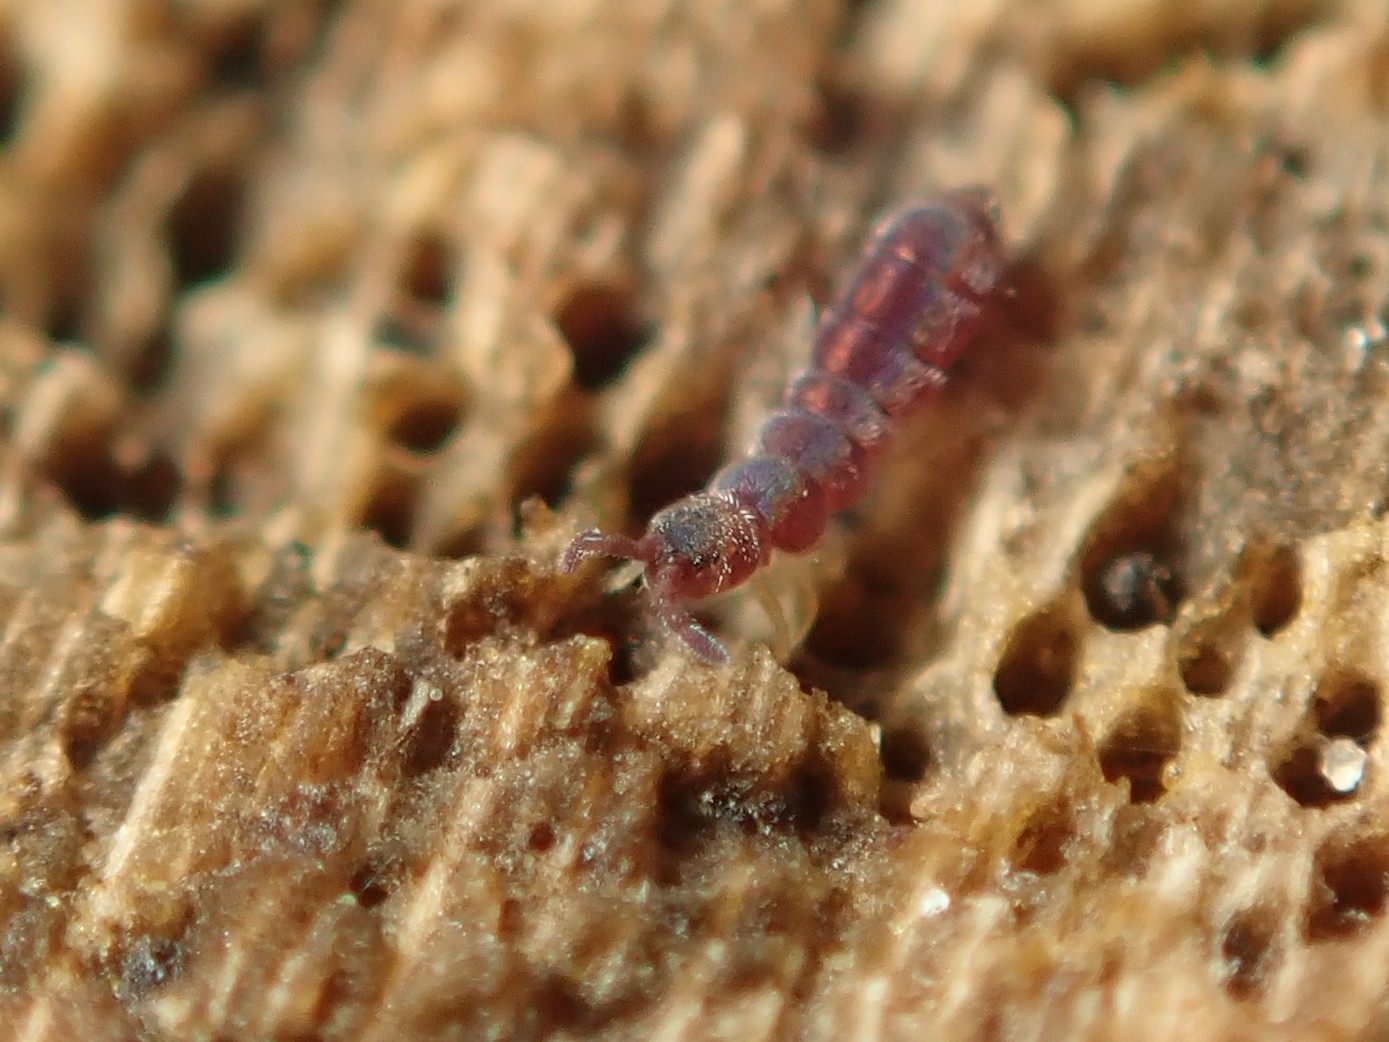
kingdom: Animalia
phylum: Arthropoda
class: Collembola
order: Entomobryomorpha
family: Isotomidae
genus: Vertagopus
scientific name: Vertagopus asiaticus
